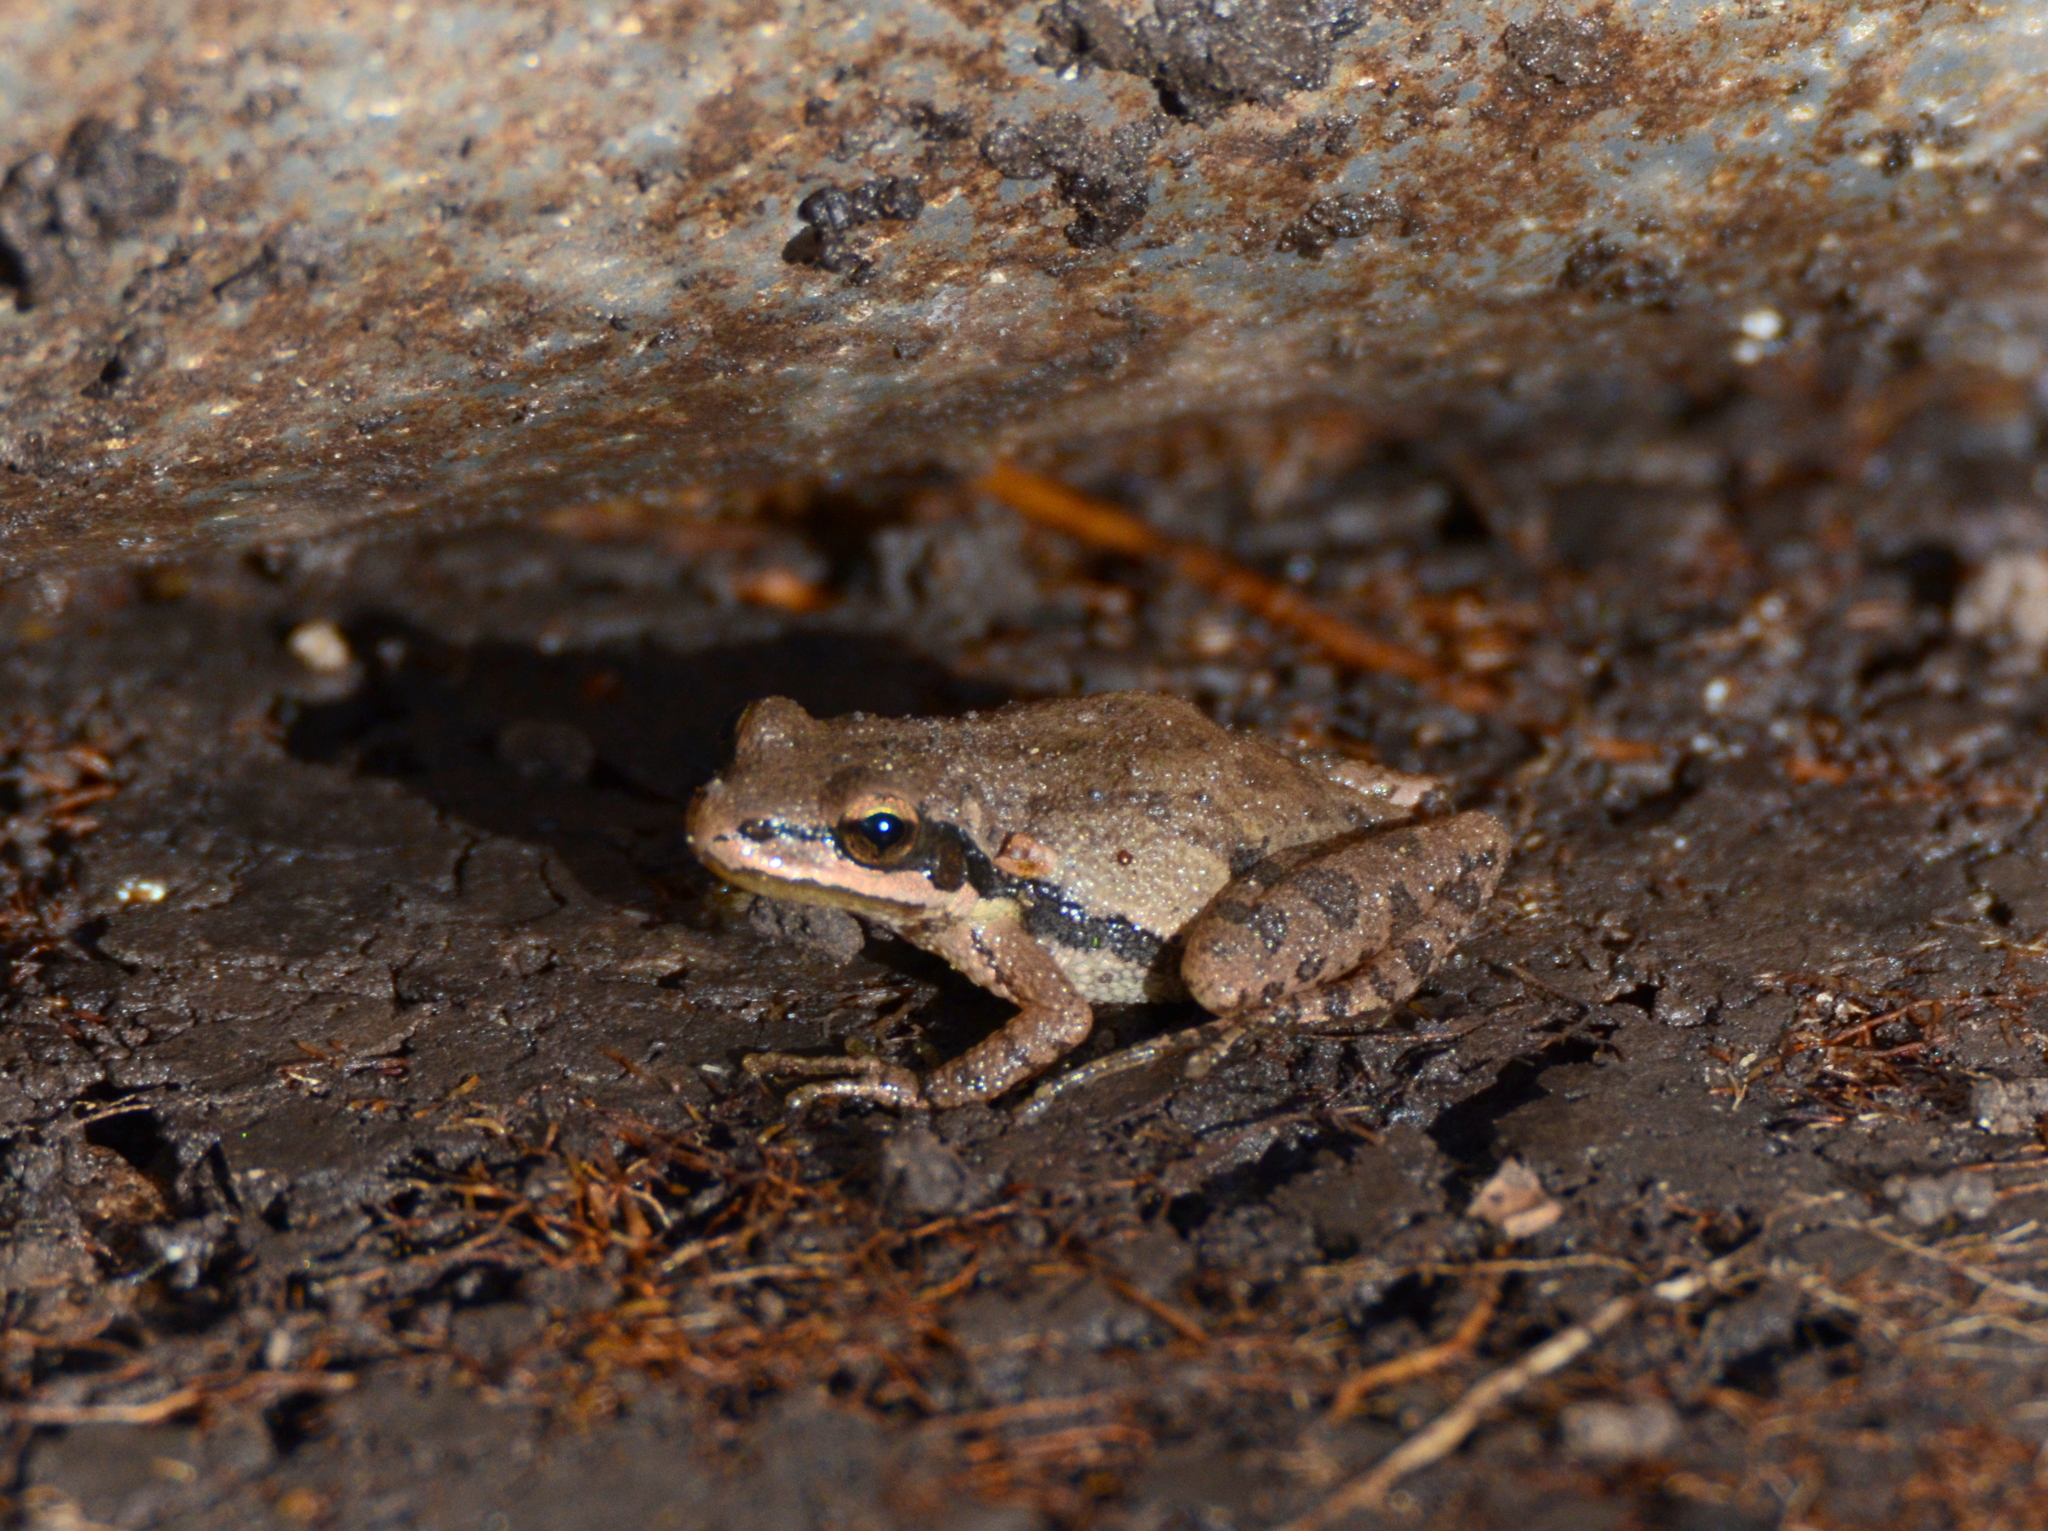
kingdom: Animalia
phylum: Chordata
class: Amphibia
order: Anura
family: Hylidae
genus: Pseudacris
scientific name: Pseudacris fouquettei
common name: Cajun chorus frog
